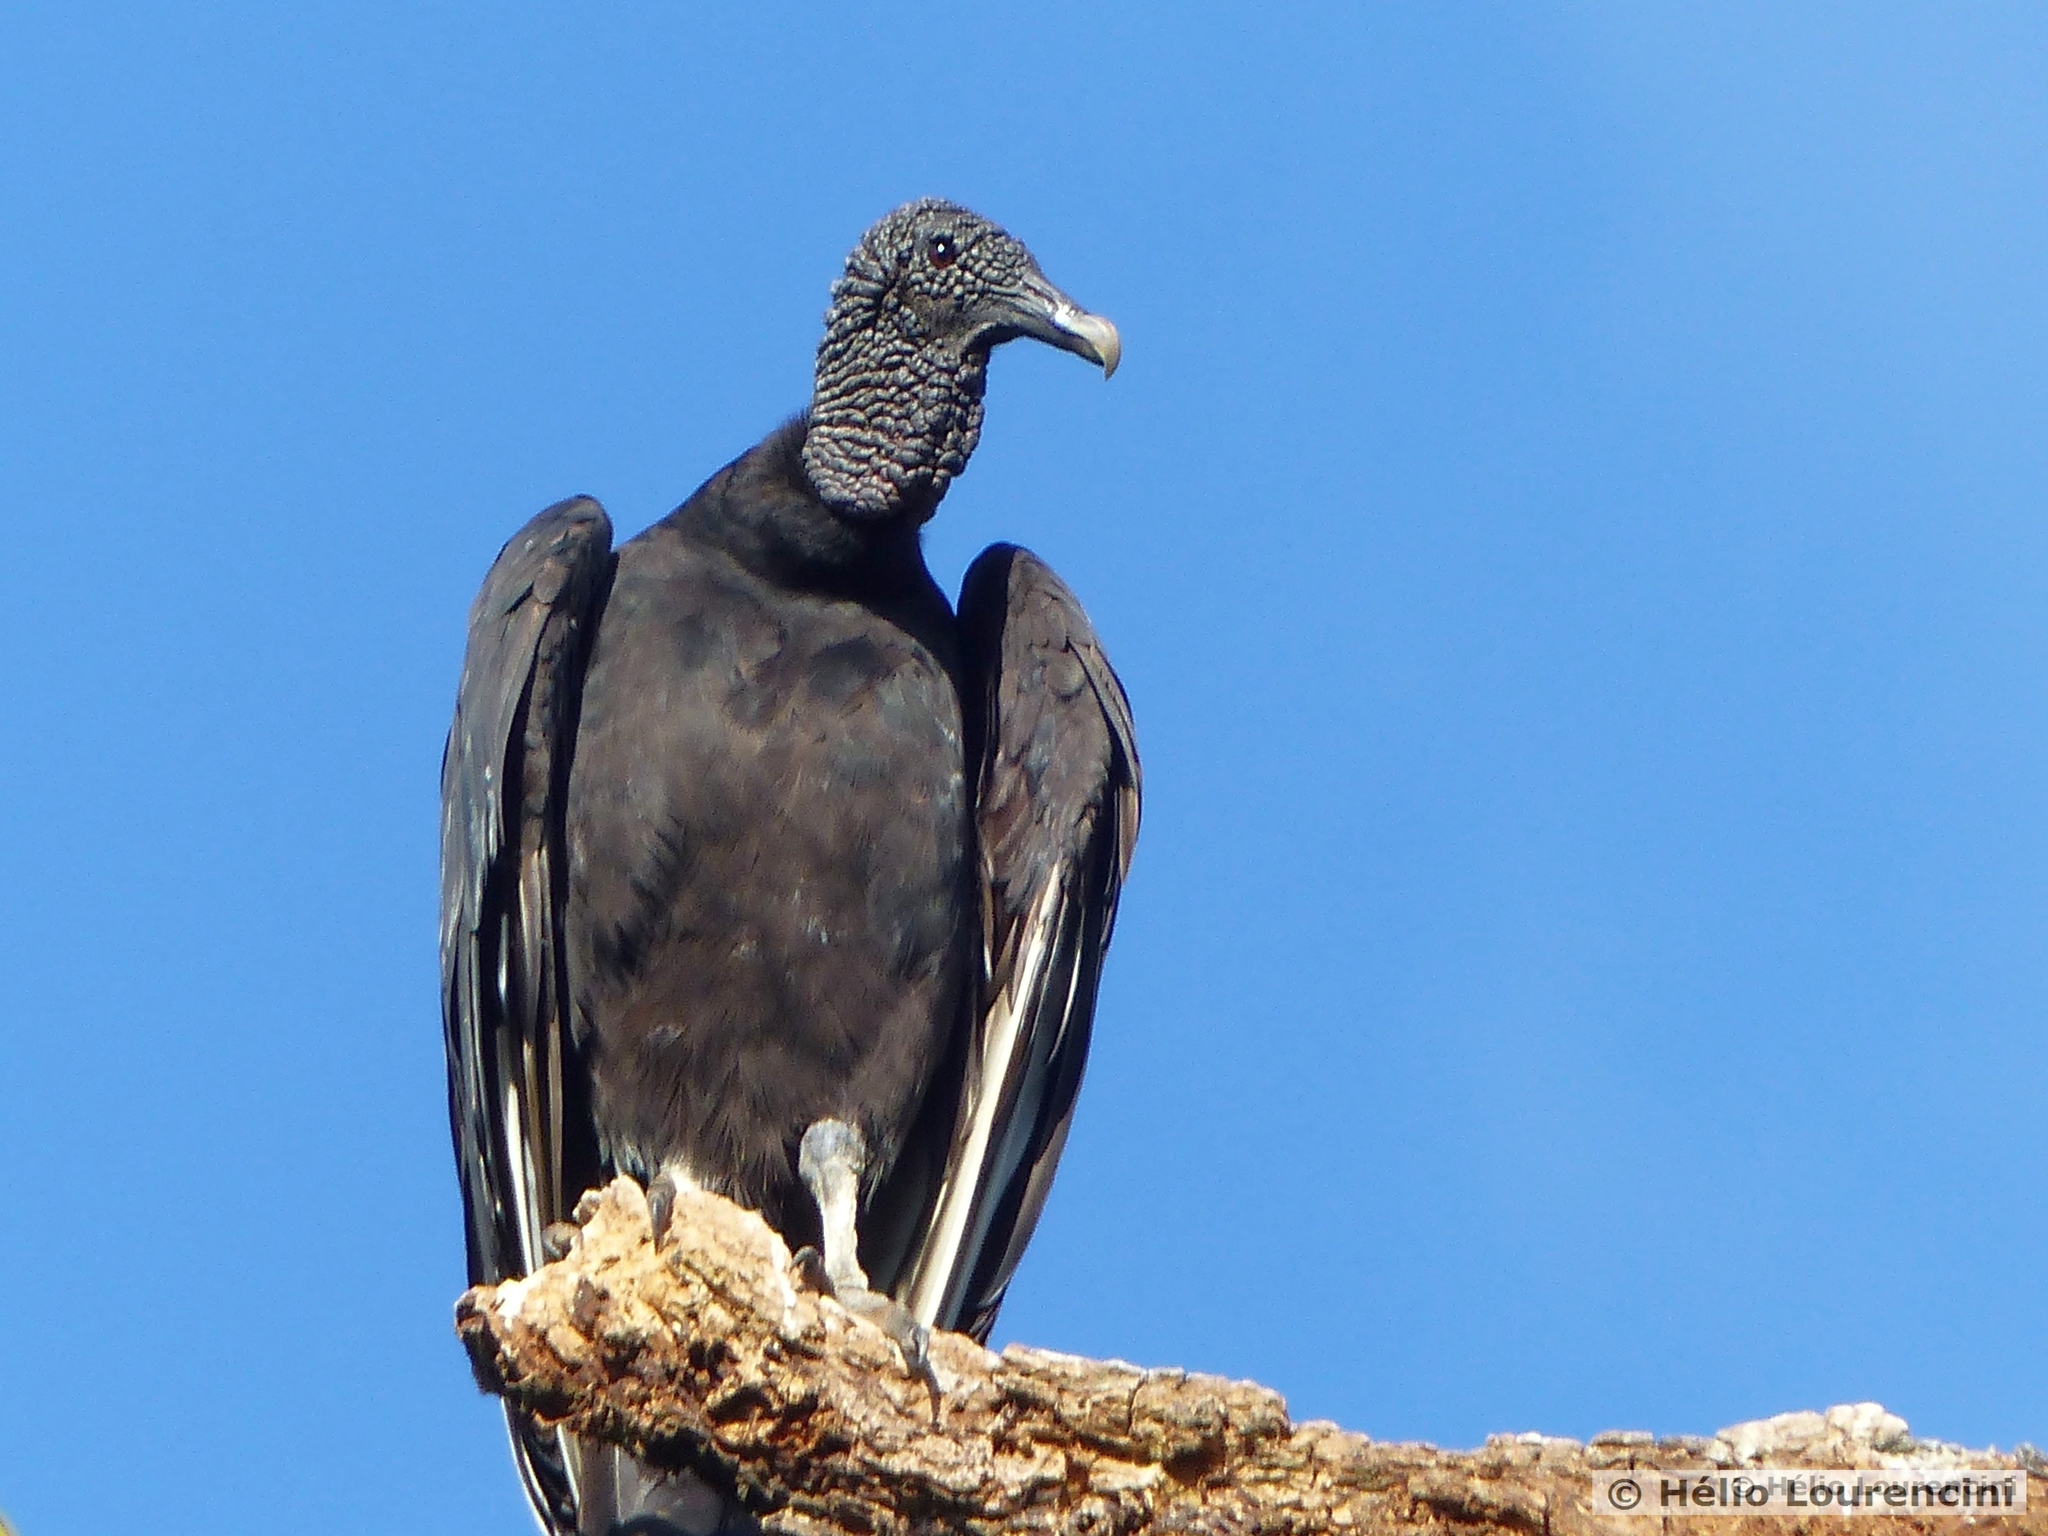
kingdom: Animalia
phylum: Chordata
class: Aves
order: Accipitriformes
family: Cathartidae
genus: Coragyps
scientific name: Coragyps atratus
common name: Black vulture
